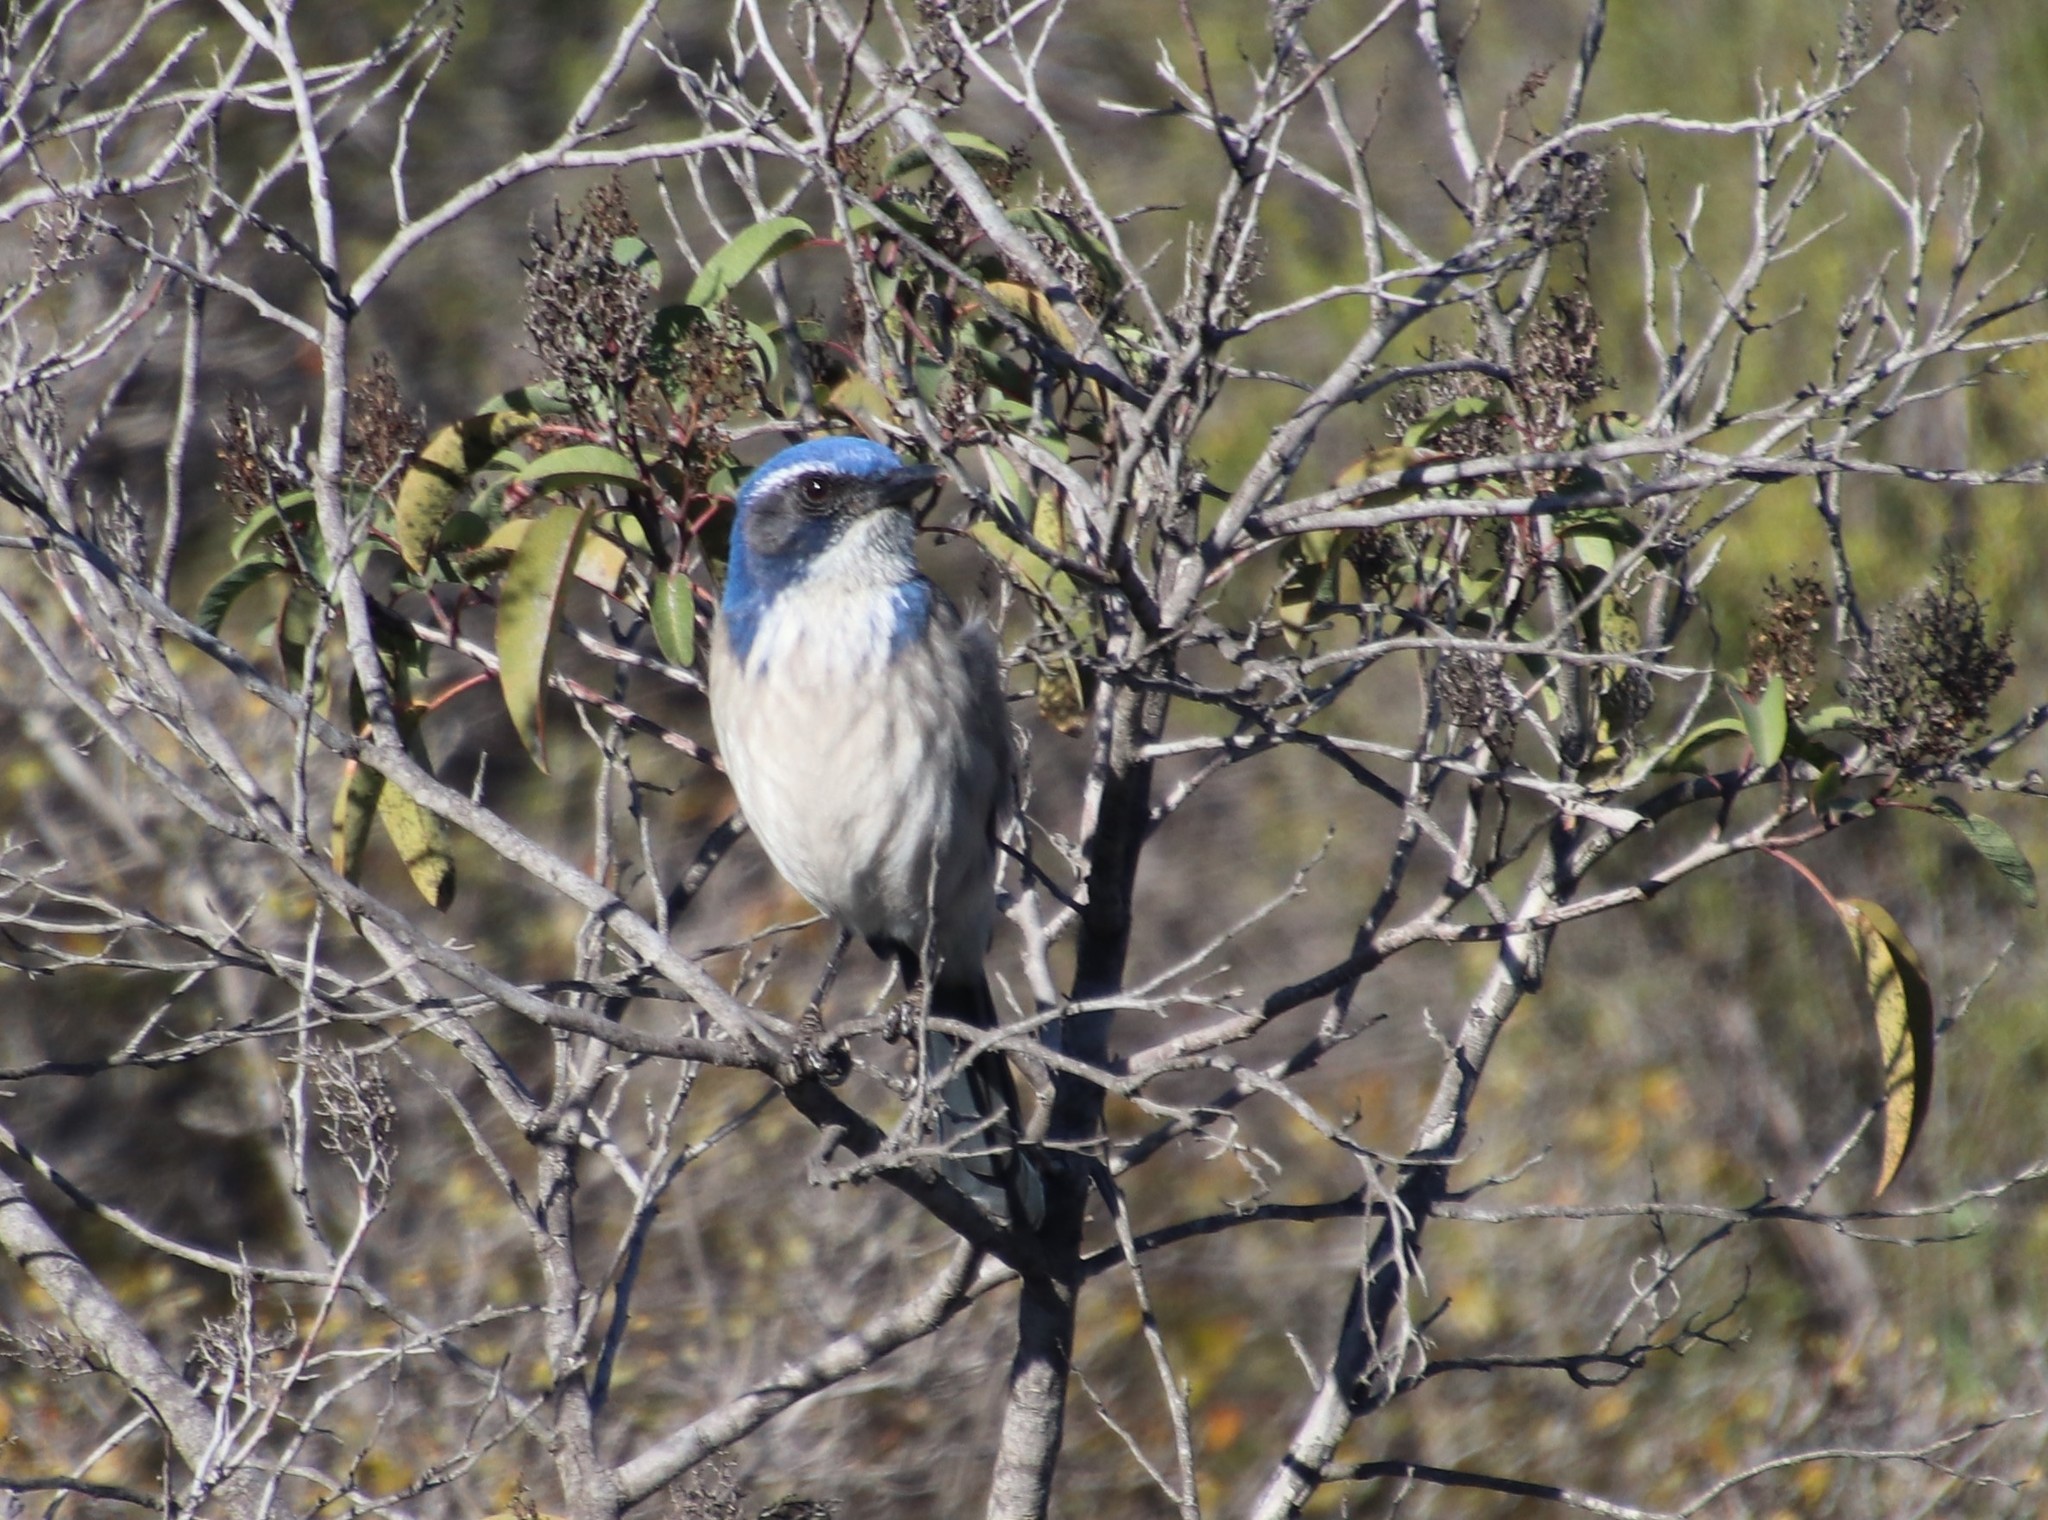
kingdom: Animalia
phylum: Chordata
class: Aves
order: Passeriformes
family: Corvidae
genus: Aphelocoma
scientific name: Aphelocoma californica
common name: California scrub-jay
